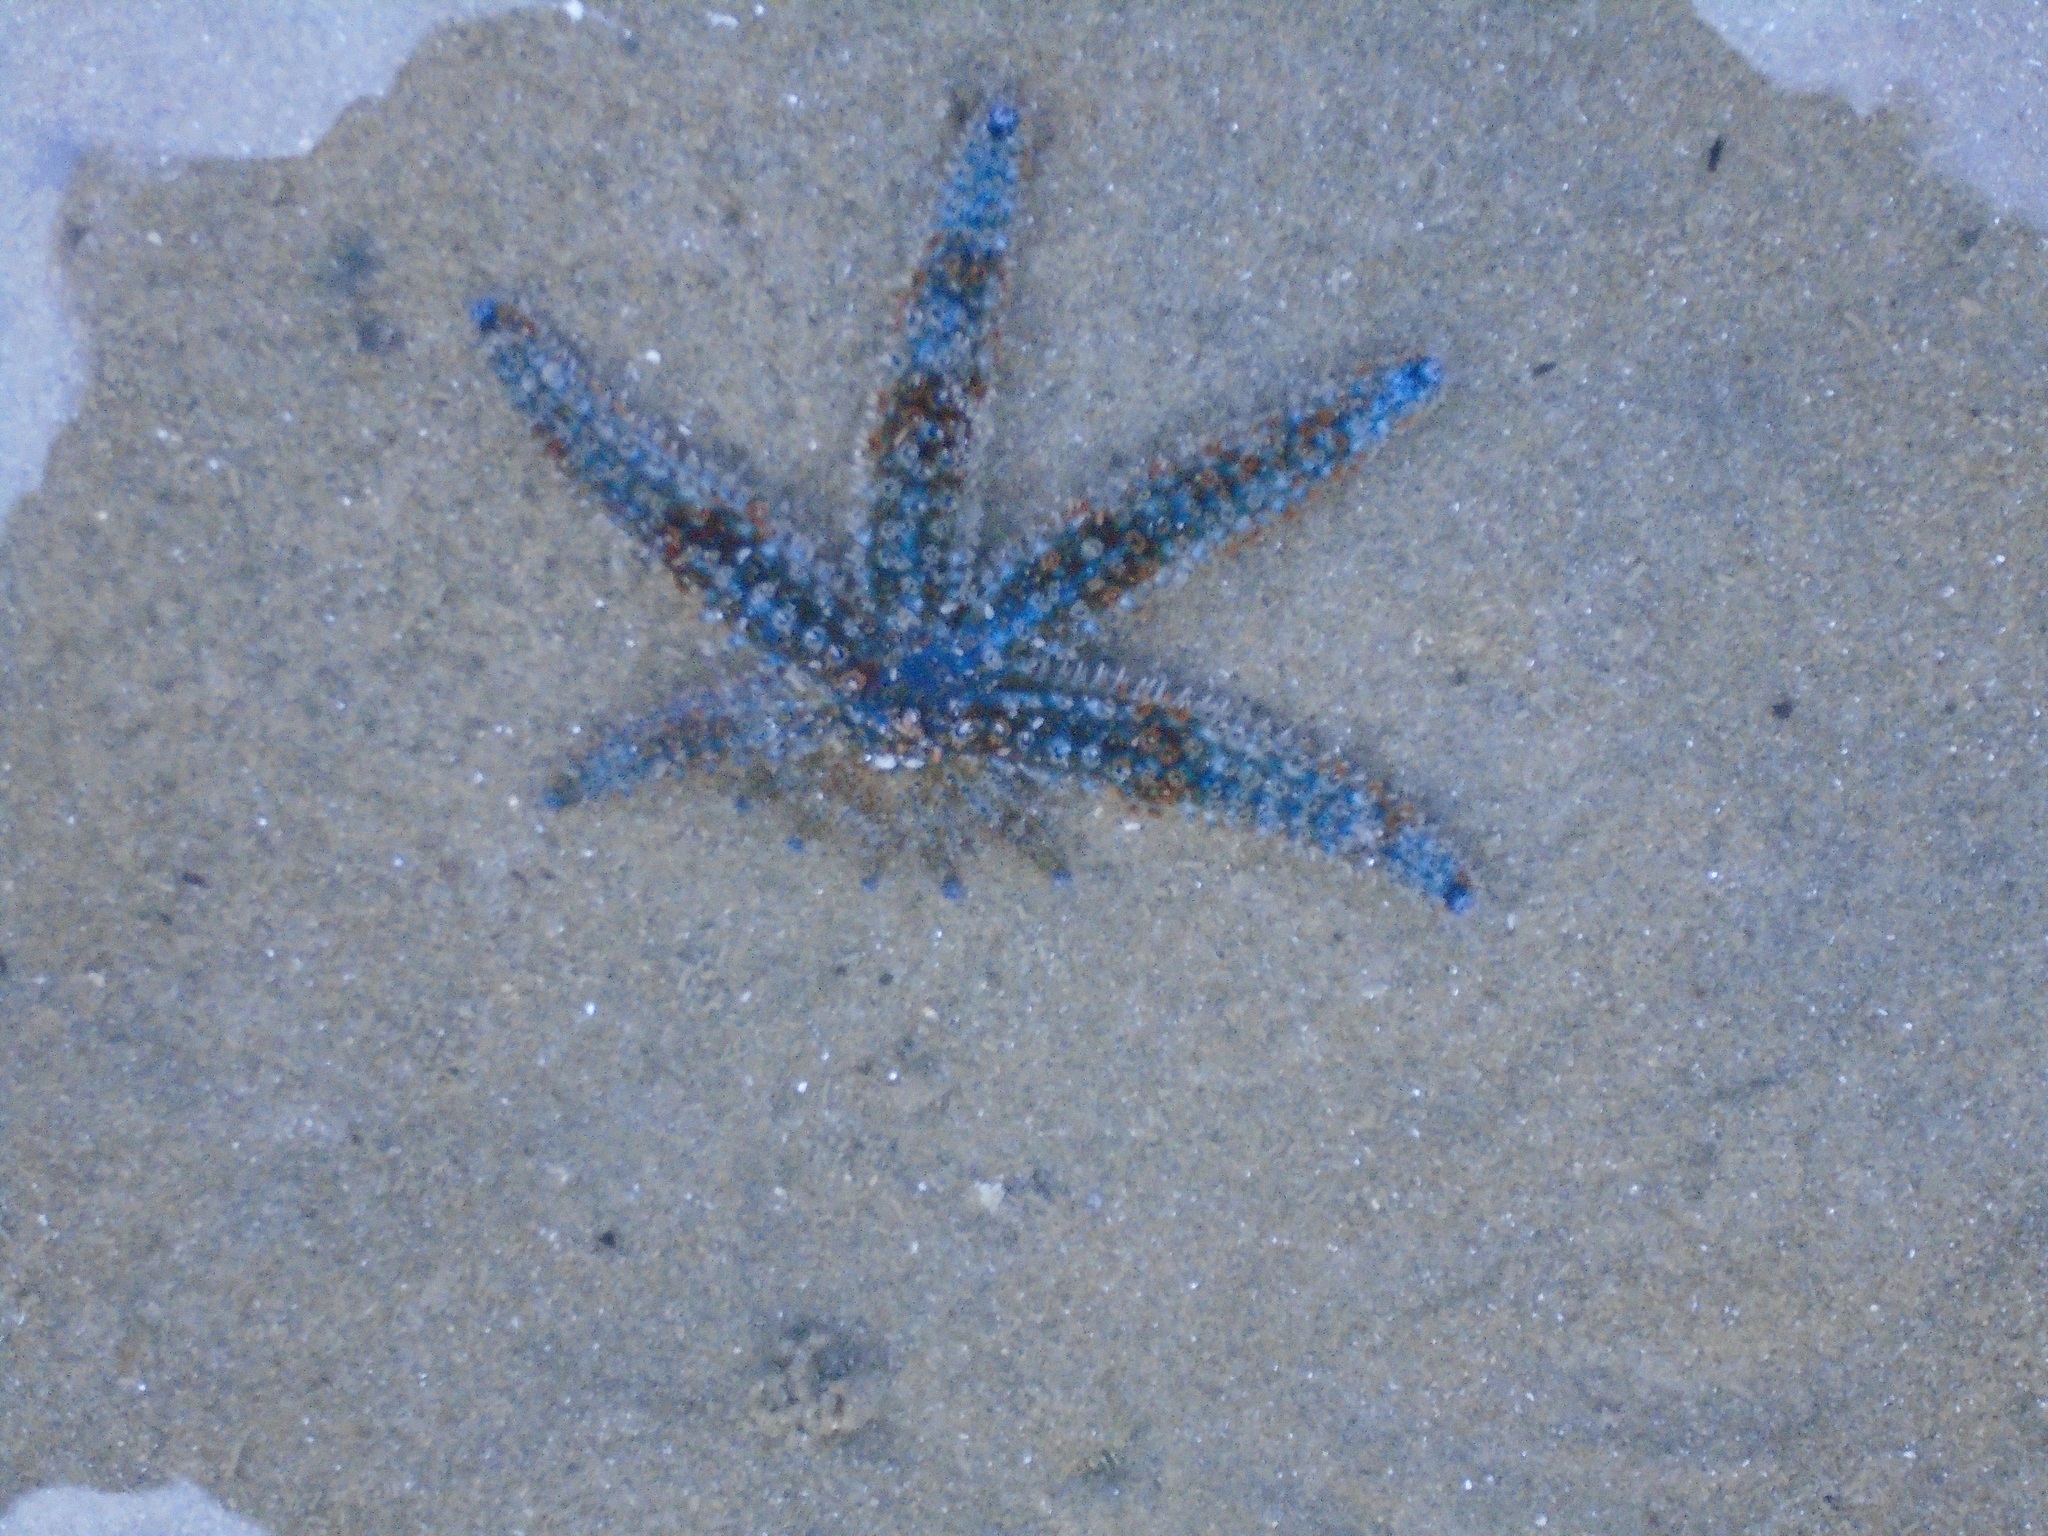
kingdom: Animalia
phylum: Echinodermata
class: Asteroidea
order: Forcipulatida
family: Asteriidae
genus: Coscinasterias
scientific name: Coscinasterias muricata
